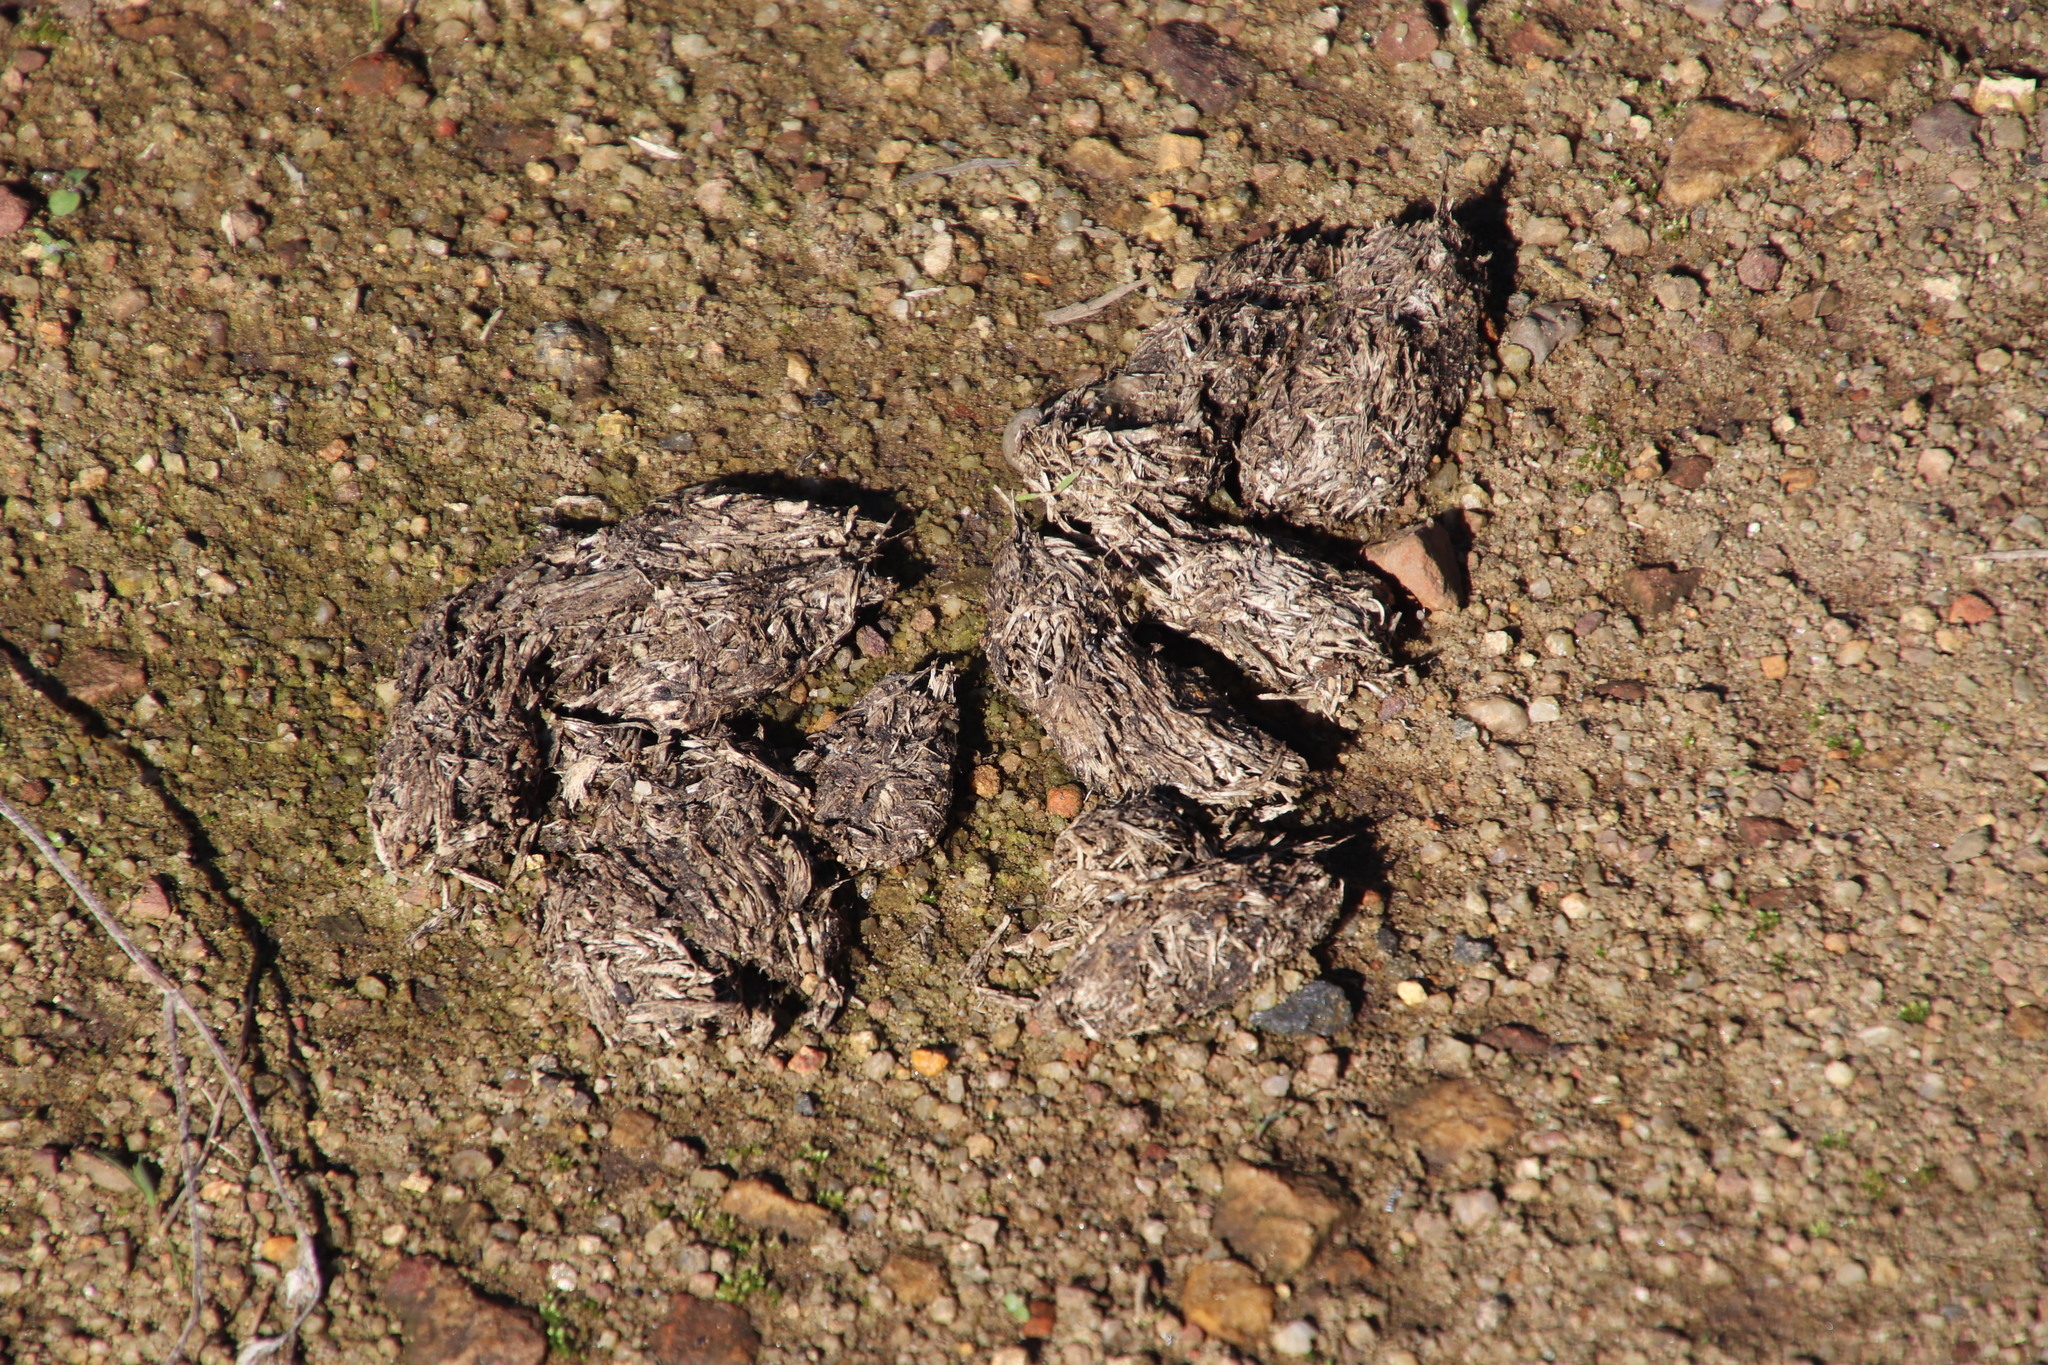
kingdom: Animalia
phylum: Chordata
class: Mammalia
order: Rodentia
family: Hystricidae
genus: Hystrix
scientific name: Hystrix africaeaustralis
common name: Cape porcupine
